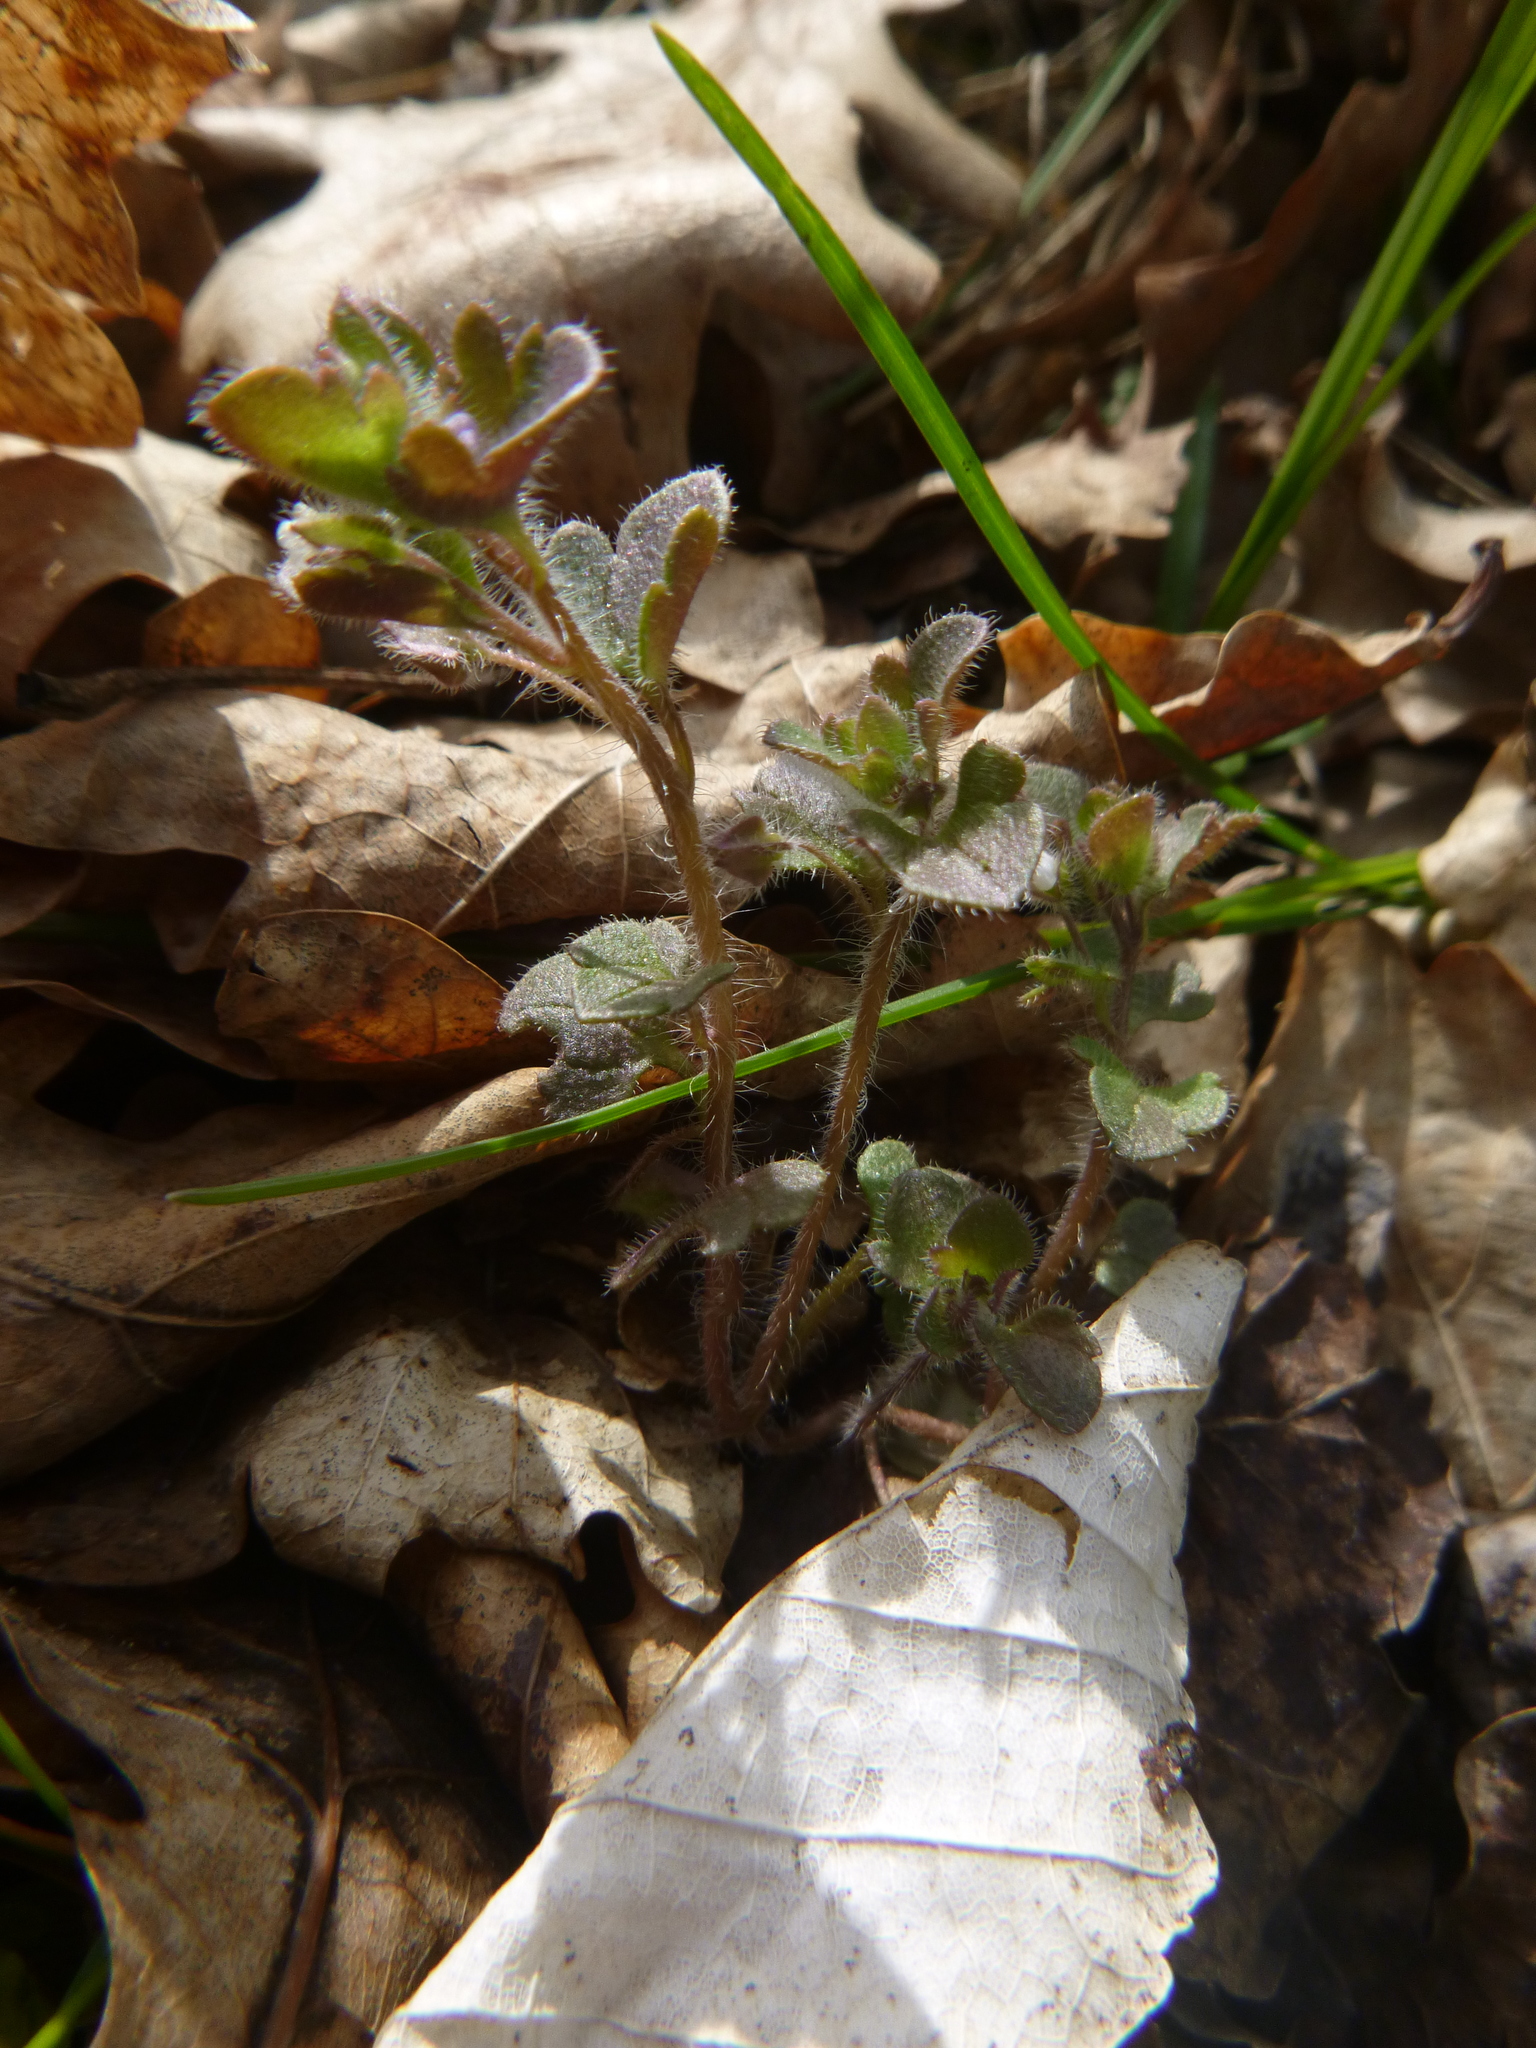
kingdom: Plantae
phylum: Tracheophyta
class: Magnoliopsida
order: Lamiales
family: Plantaginaceae
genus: Veronica
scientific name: Veronica sublobata
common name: False ivy-leaved speedwell
